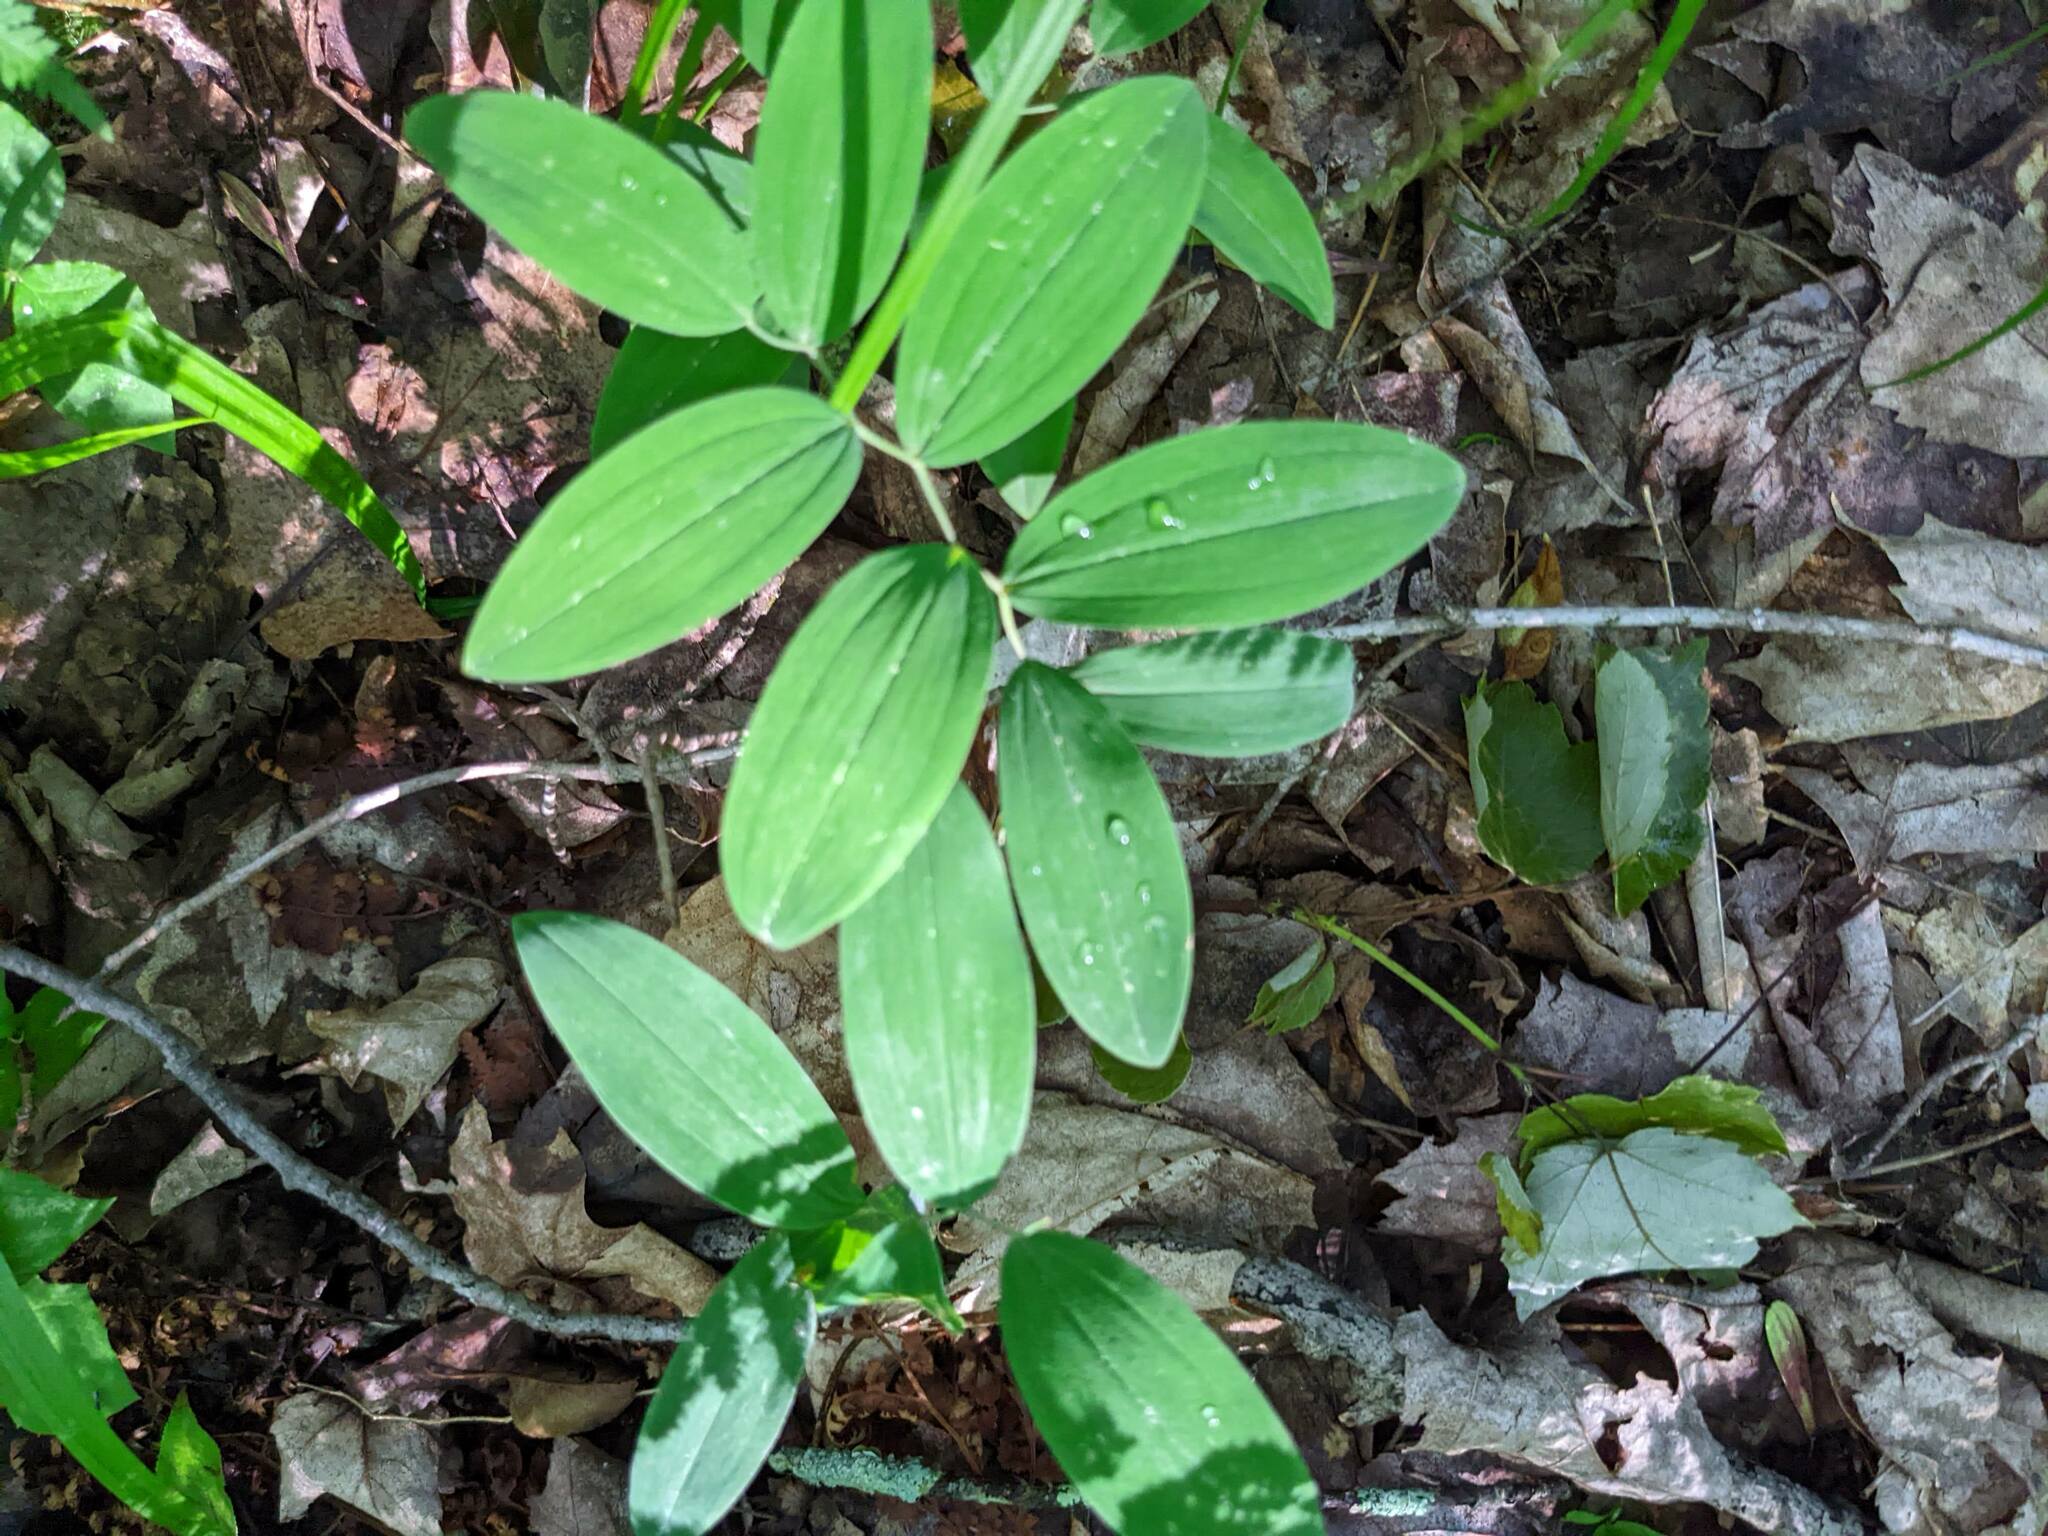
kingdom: Plantae
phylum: Tracheophyta
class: Liliopsida
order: Liliales
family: Colchicaceae
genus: Uvularia
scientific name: Uvularia sessilifolia
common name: Straw-lily
